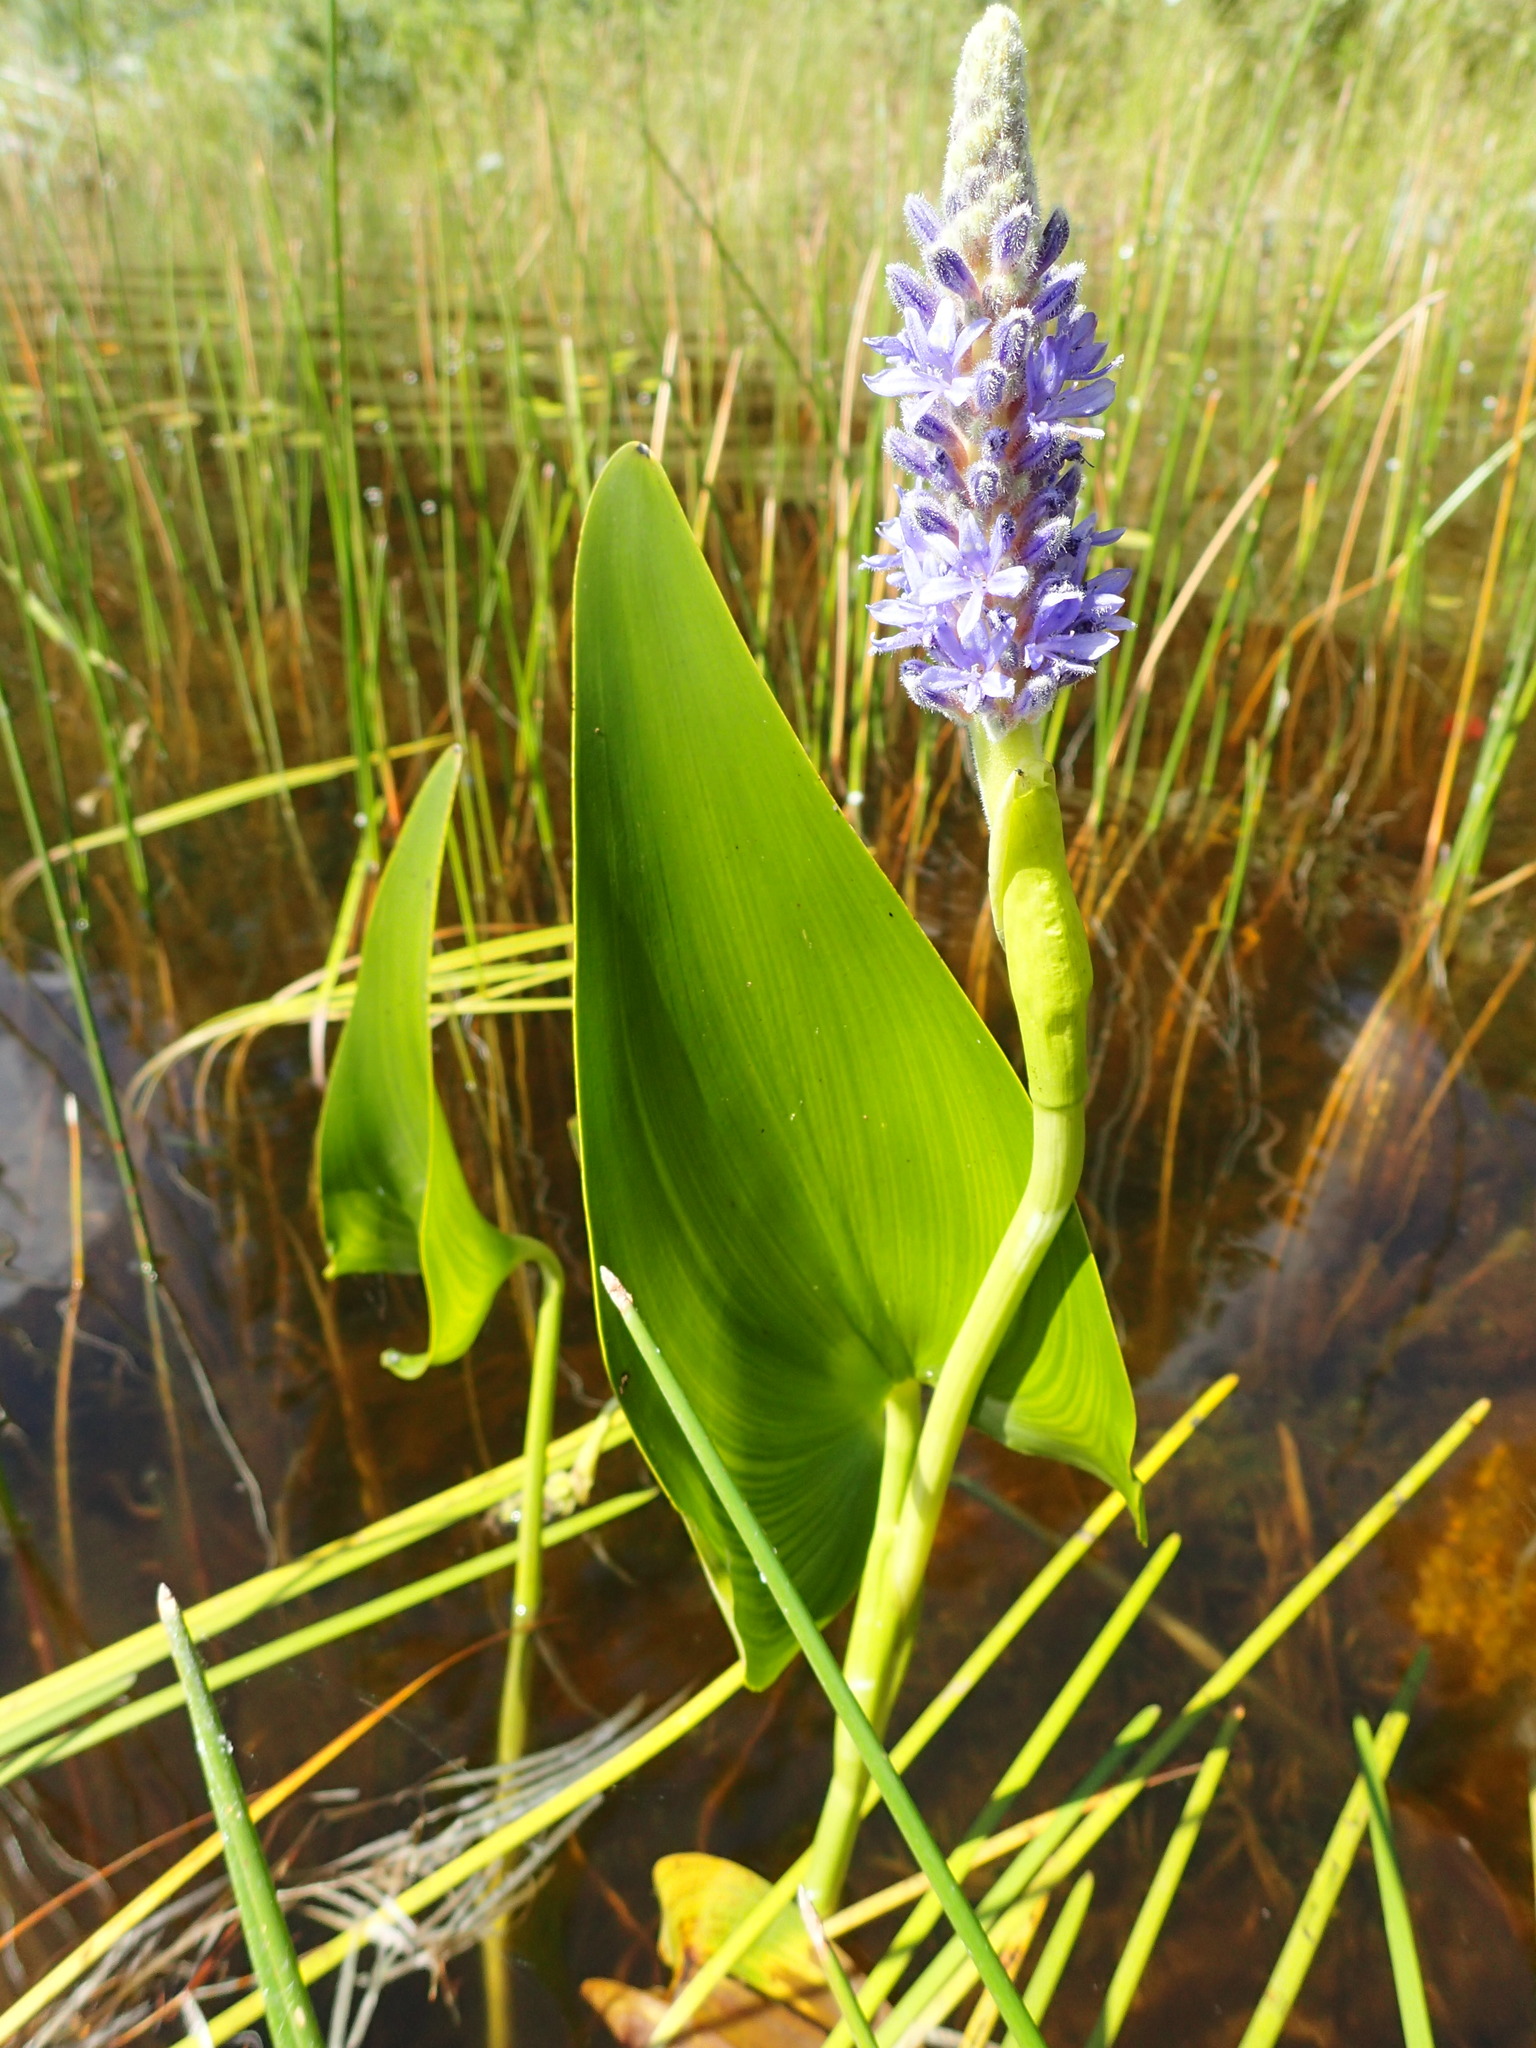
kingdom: Plantae
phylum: Tracheophyta
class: Liliopsida
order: Commelinales
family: Pontederiaceae
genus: Pontederia
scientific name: Pontederia cordata
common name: Pickerelweed
